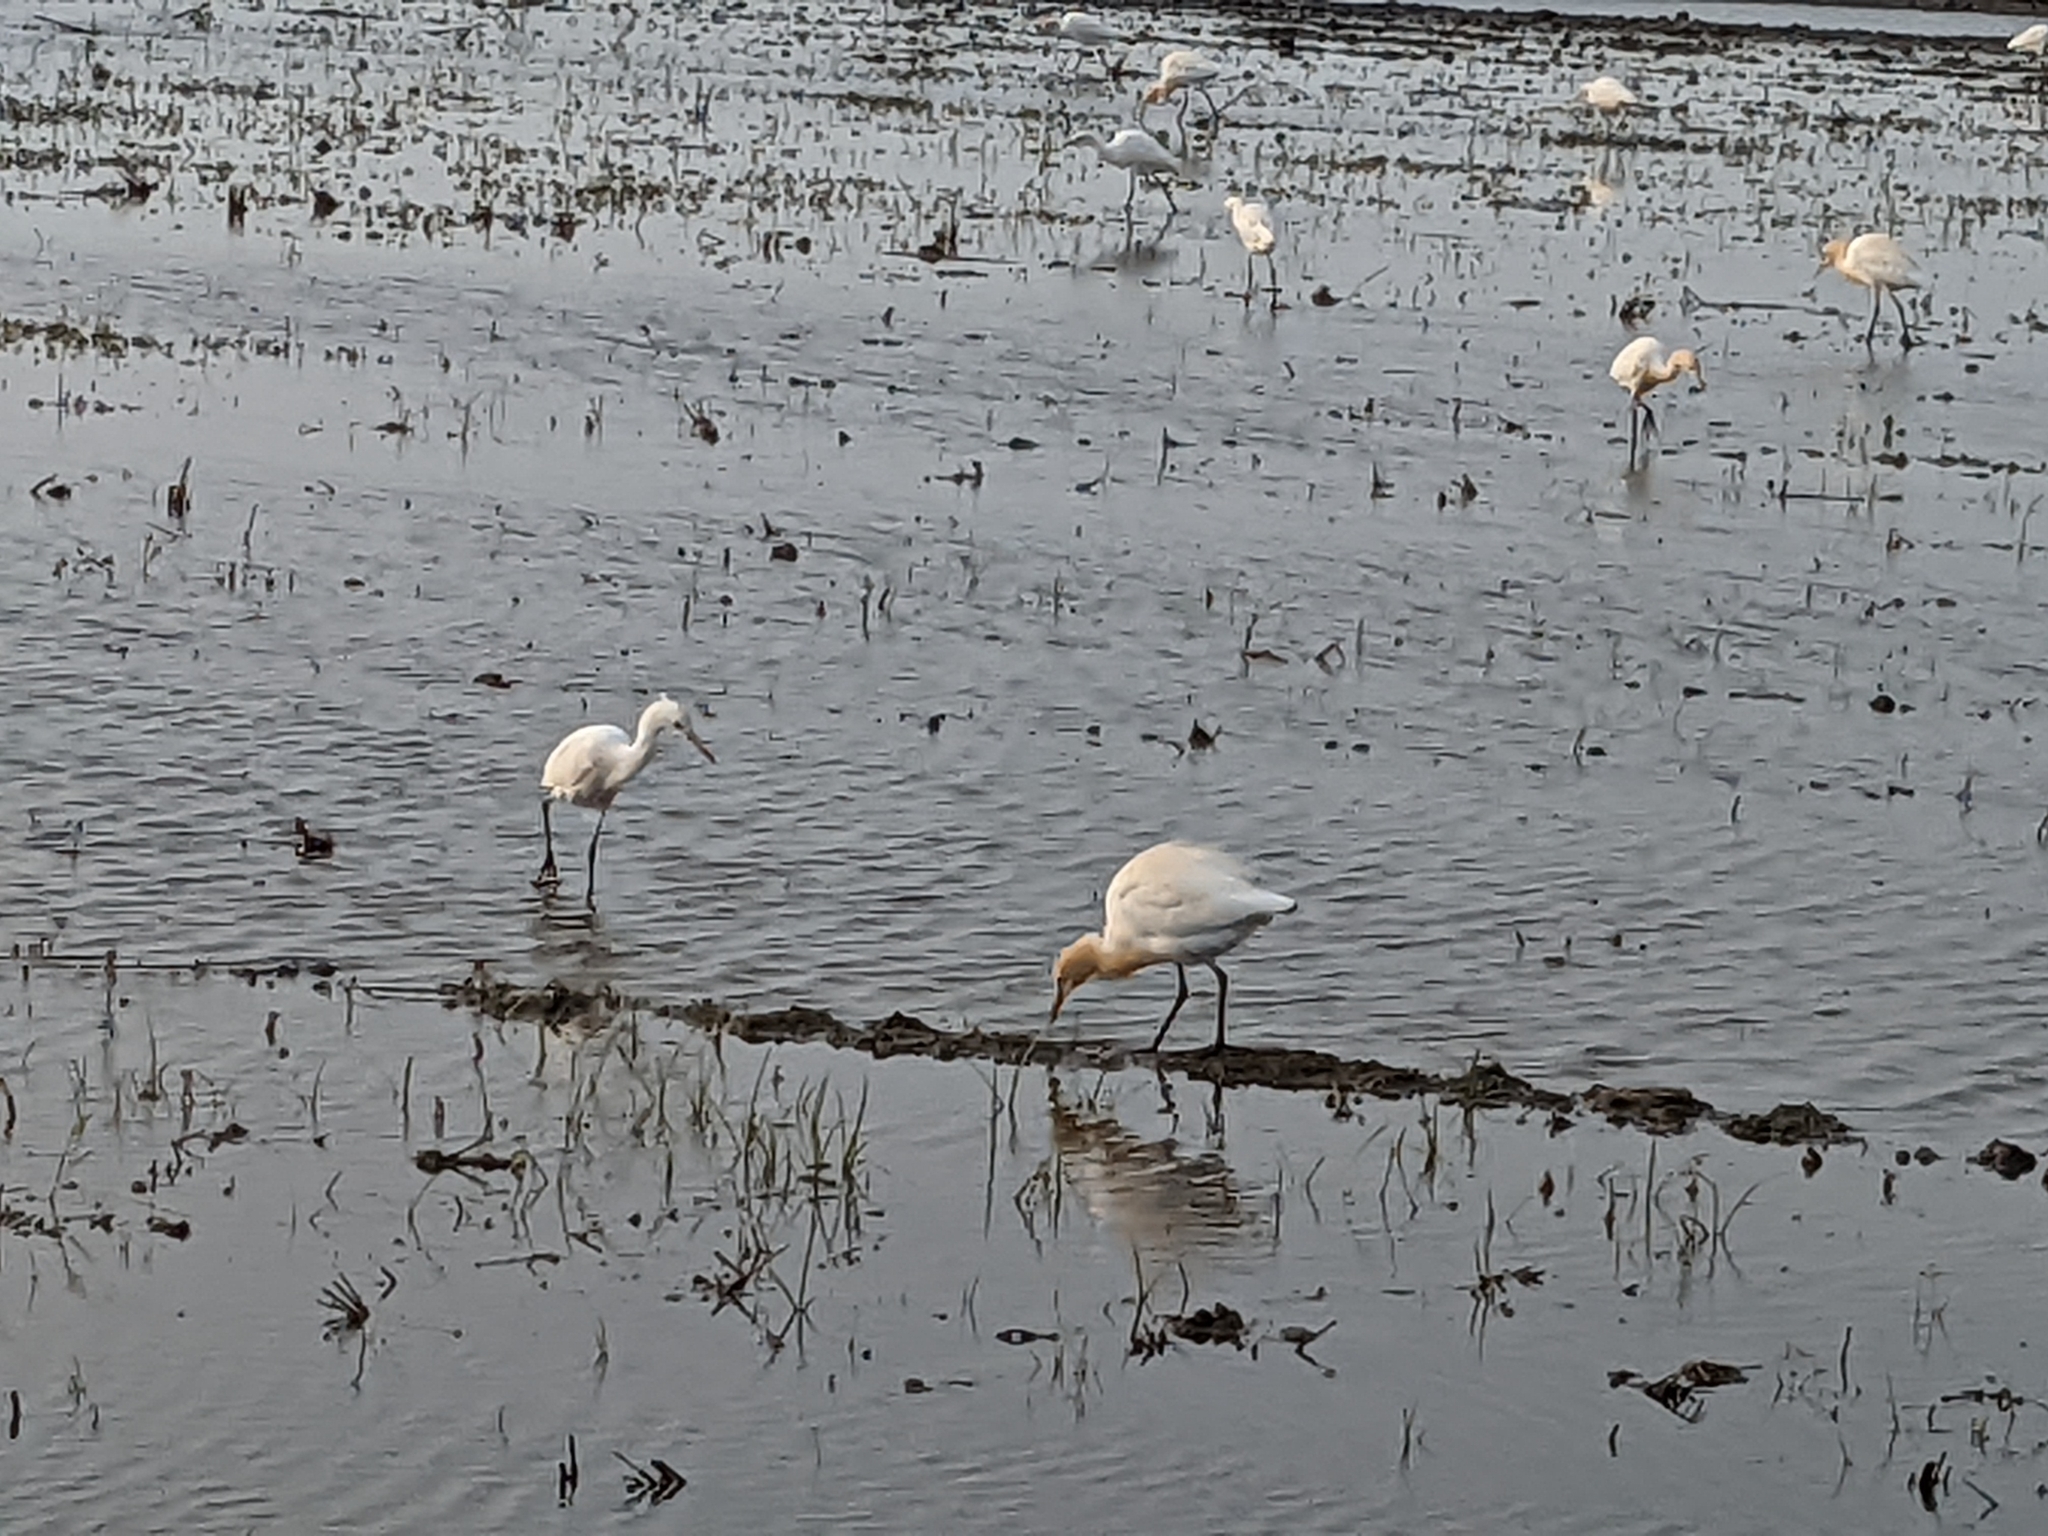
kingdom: Animalia
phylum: Chordata
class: Aves
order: Pelecaniformes
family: Ardeidae
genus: Bubulcus
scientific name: Bubulcus coromandus
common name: Eastern cattle egret
